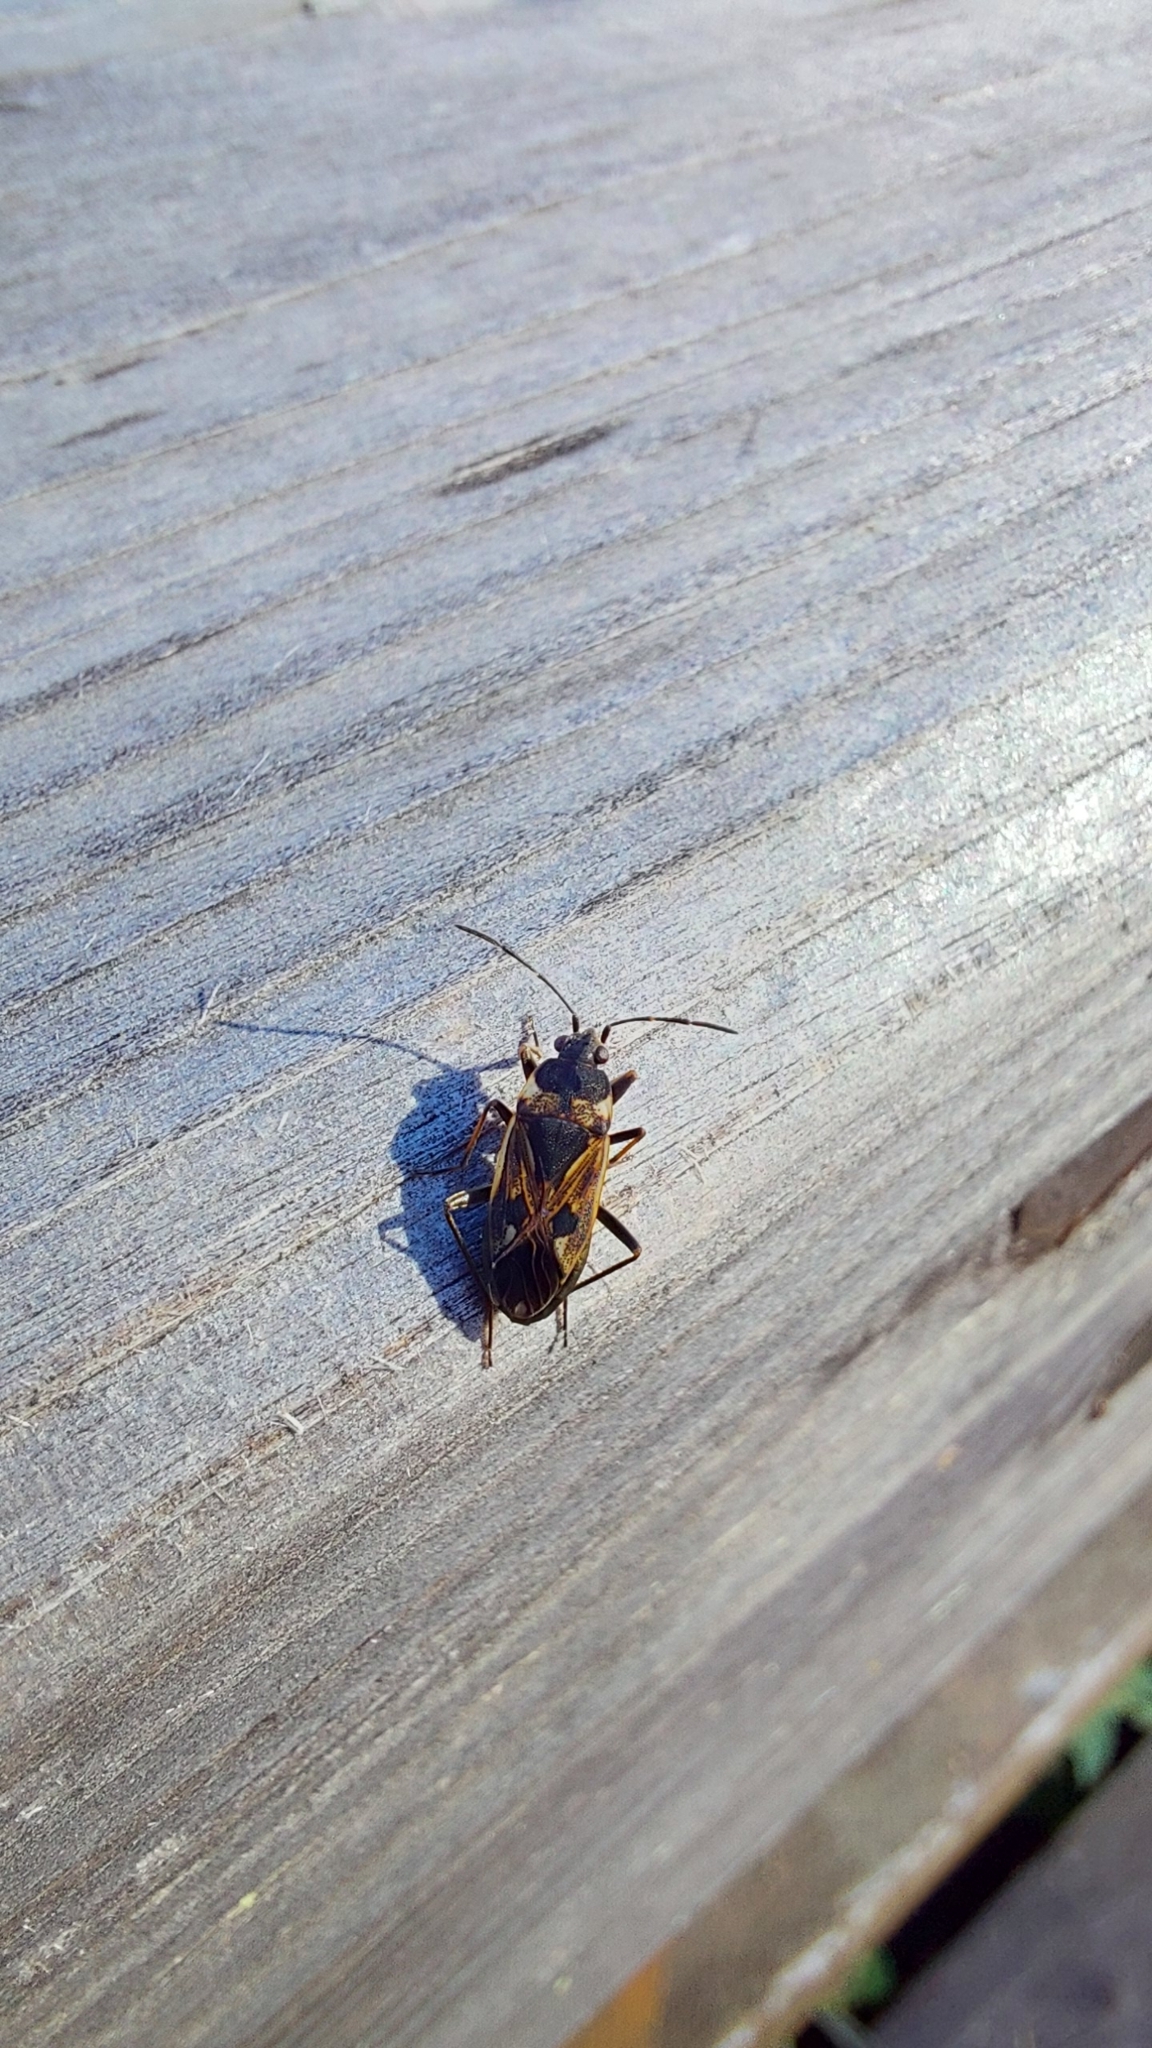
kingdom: Animalia
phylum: Arthropoda
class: Insecta
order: Hemiptera
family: Rhyparochromidae
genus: Rhyparochromus
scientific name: Rhyparochromus vulgaris
